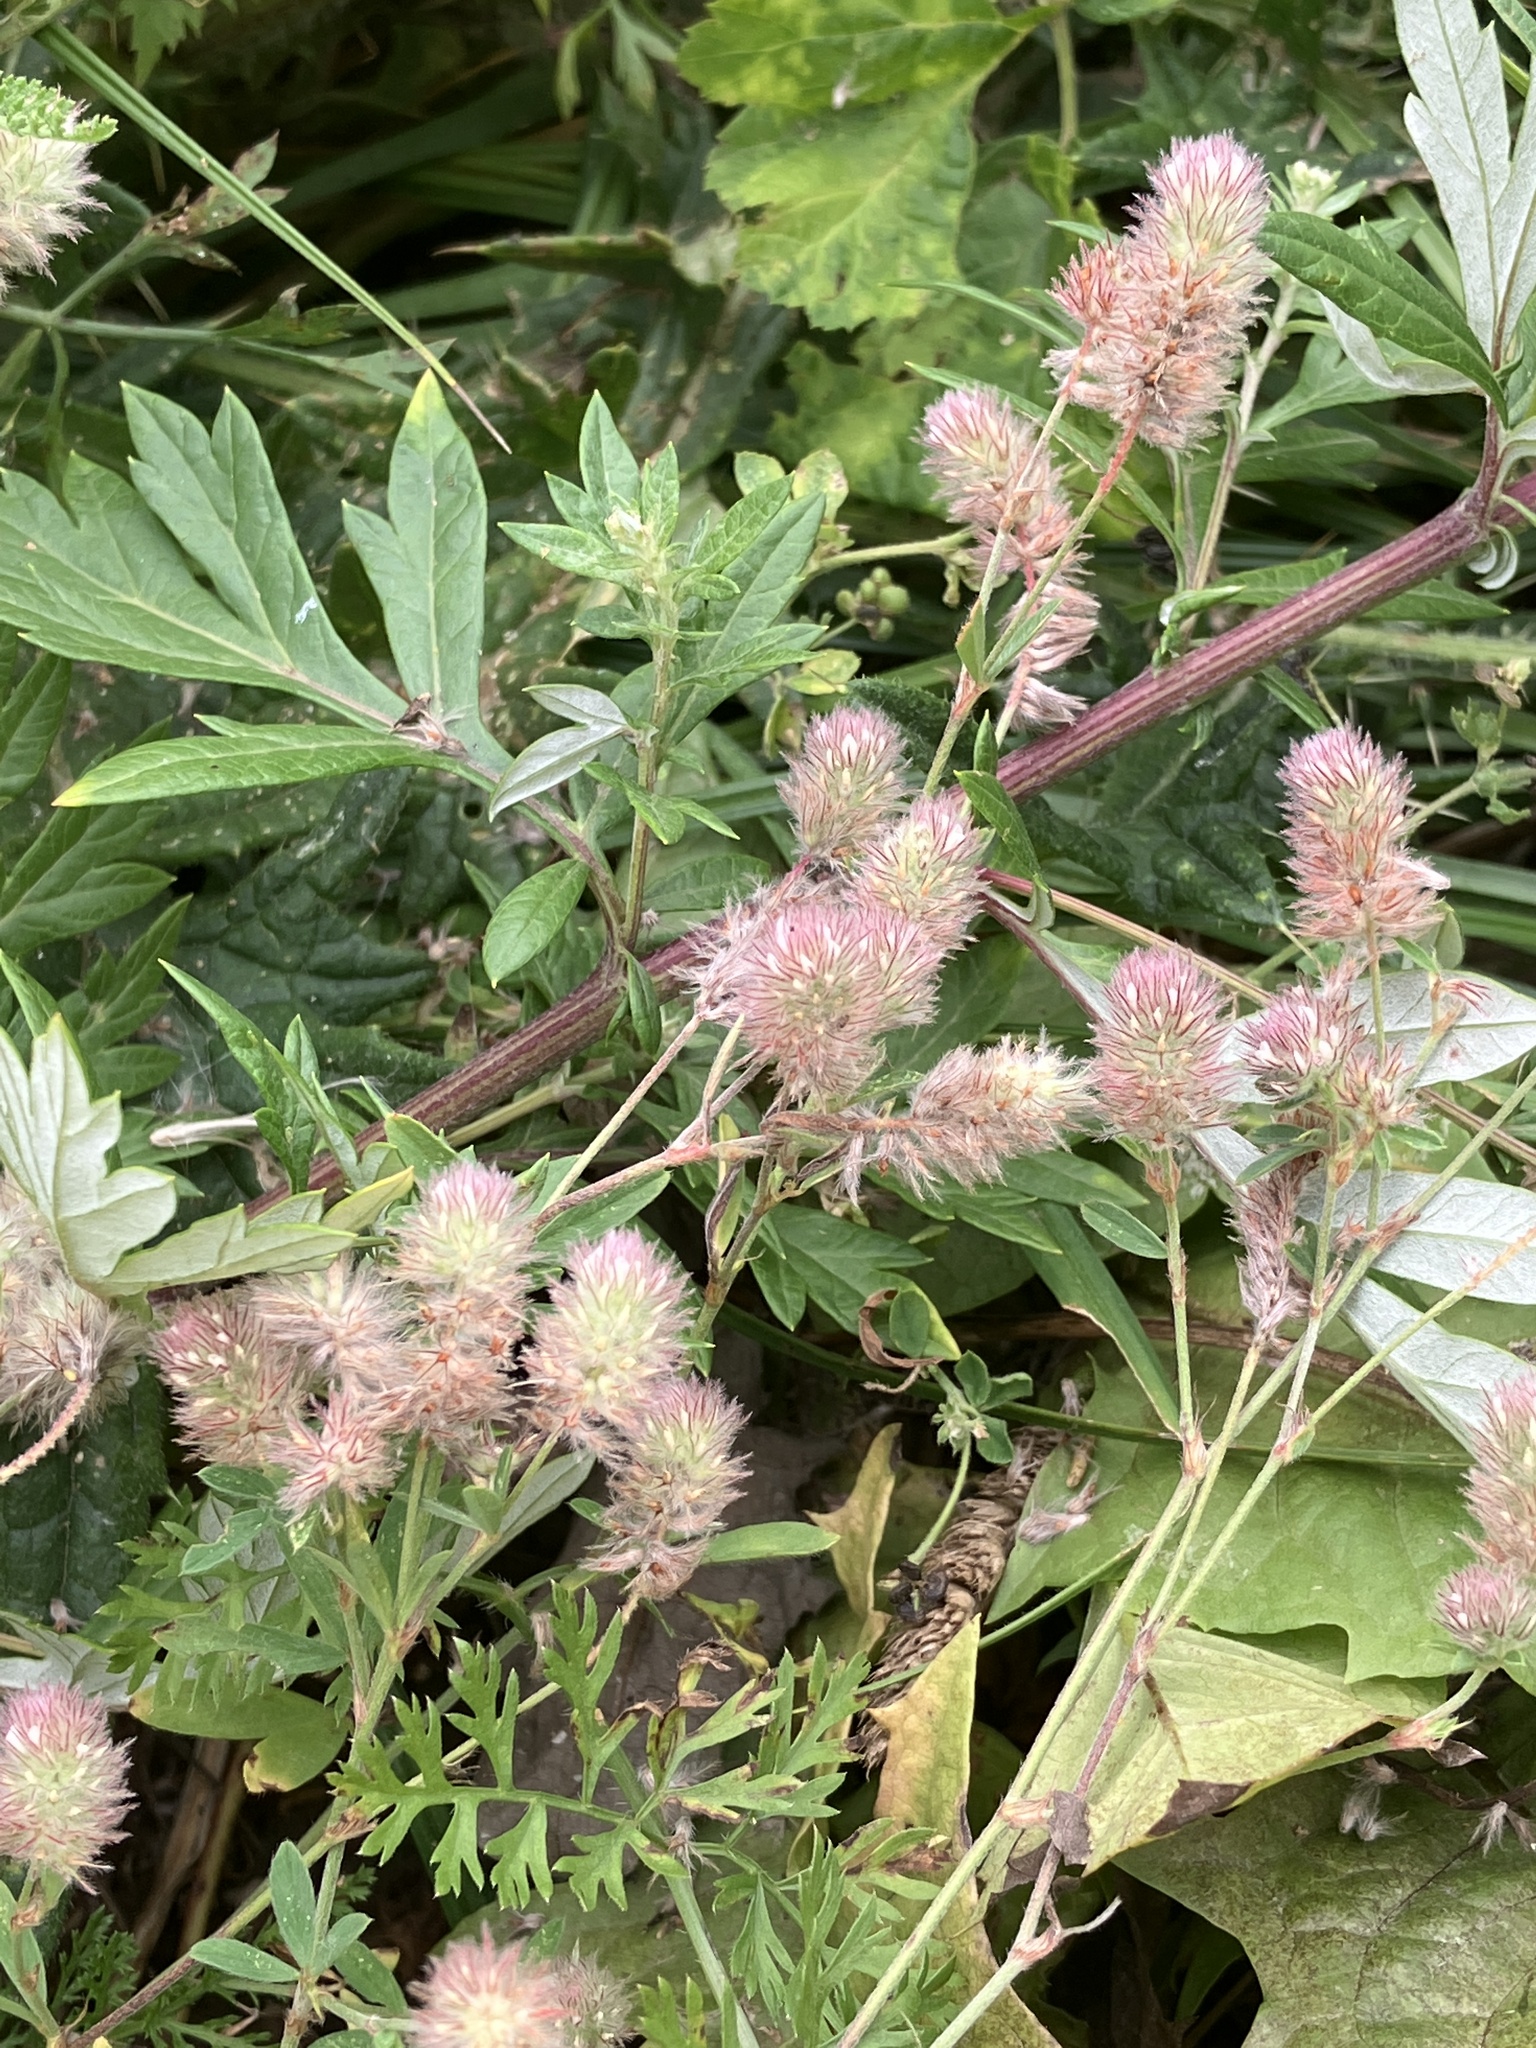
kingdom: Plantae
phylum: Tracheophyta
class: Magnoliopsida
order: Fabales
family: Fabaceae
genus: Trifolium
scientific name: Trifolium arvense
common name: Hare's-foot clover
